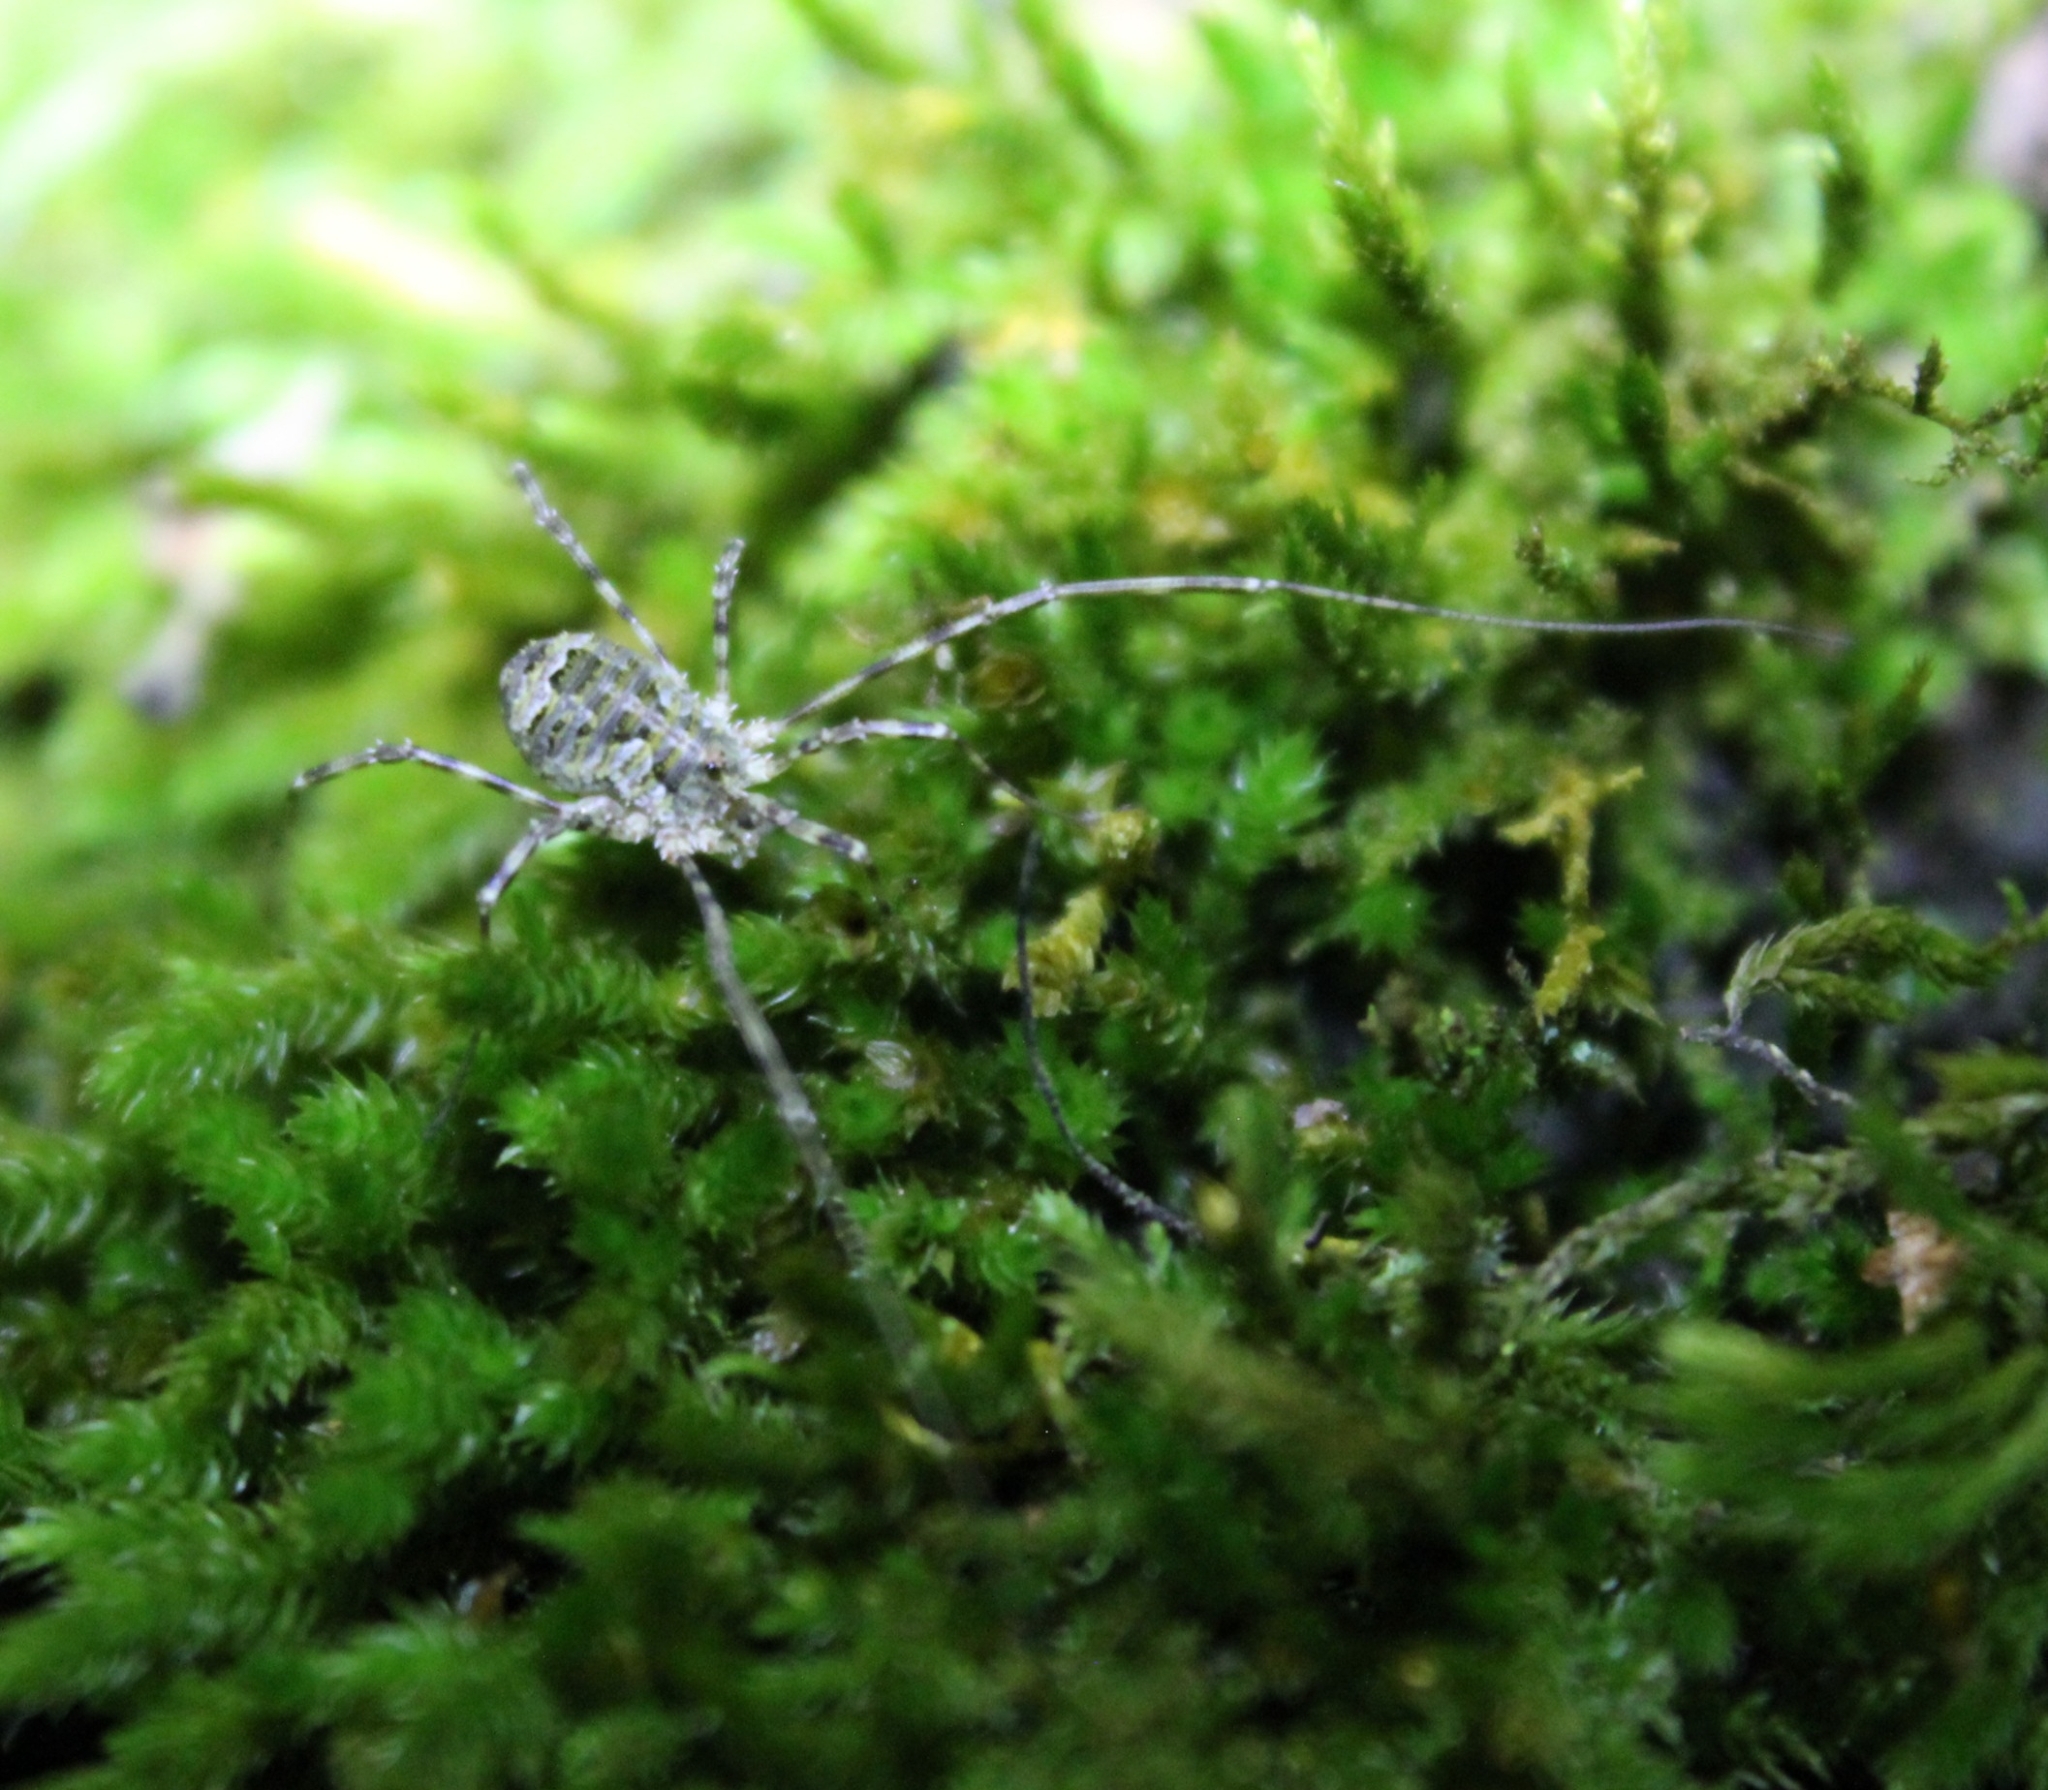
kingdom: Animalia
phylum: Arthropoda
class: Arachnida
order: Opiliones
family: Phalangiidae
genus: Lacinius
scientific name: Lacinius dentiger
